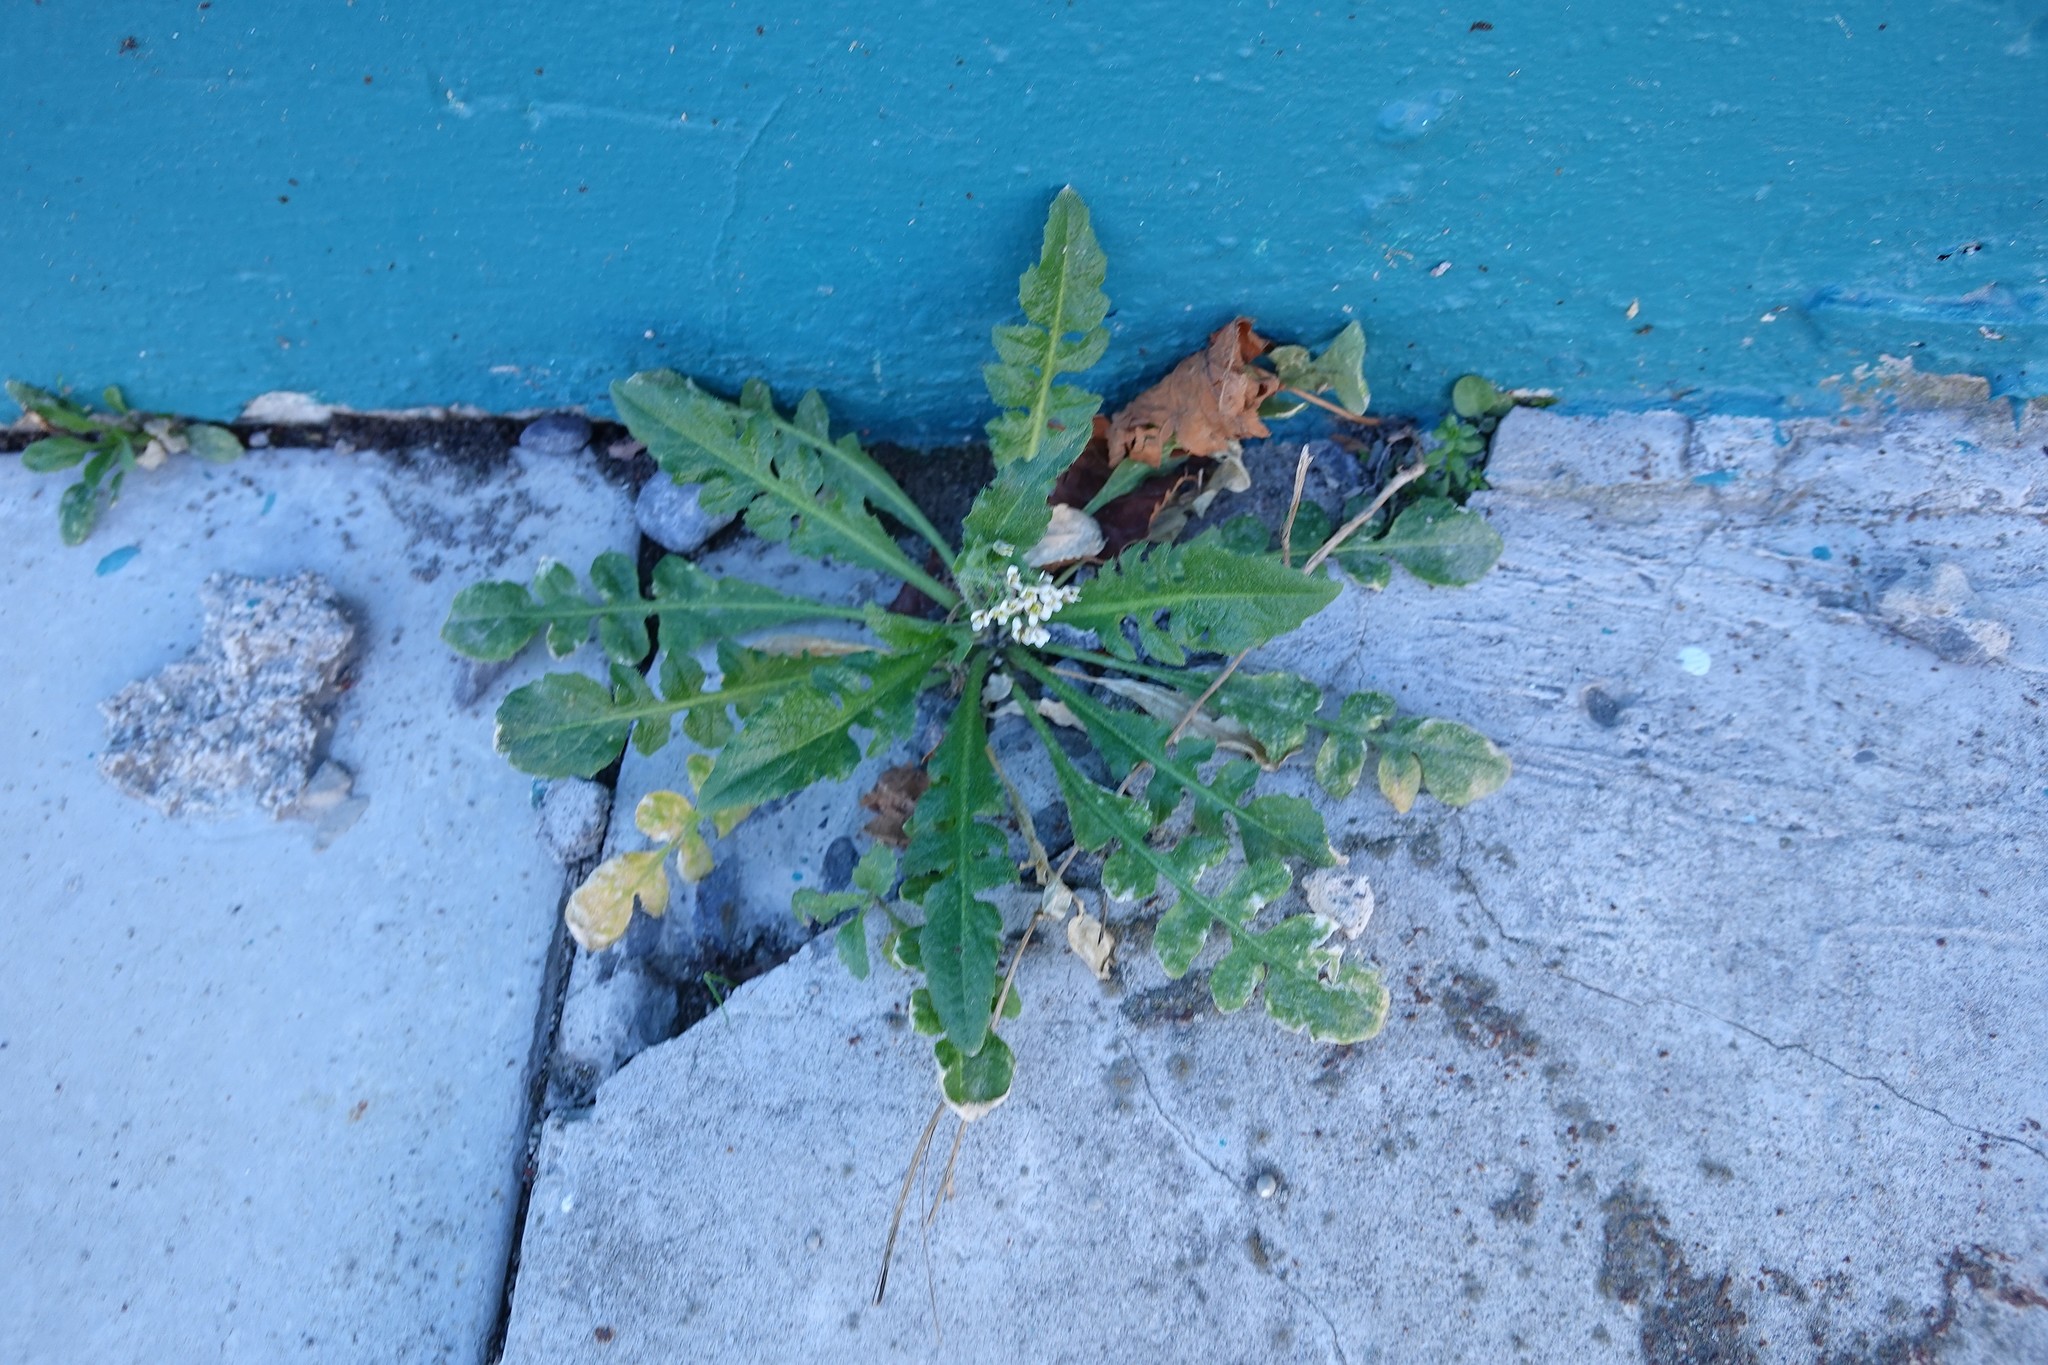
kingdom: Plantae
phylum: Tracheophyta
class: Magnoliopsida
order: Brassicales
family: Brassicaceae
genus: Capsella
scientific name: Capsella bursa-pastoris
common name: Shepherd's purse
